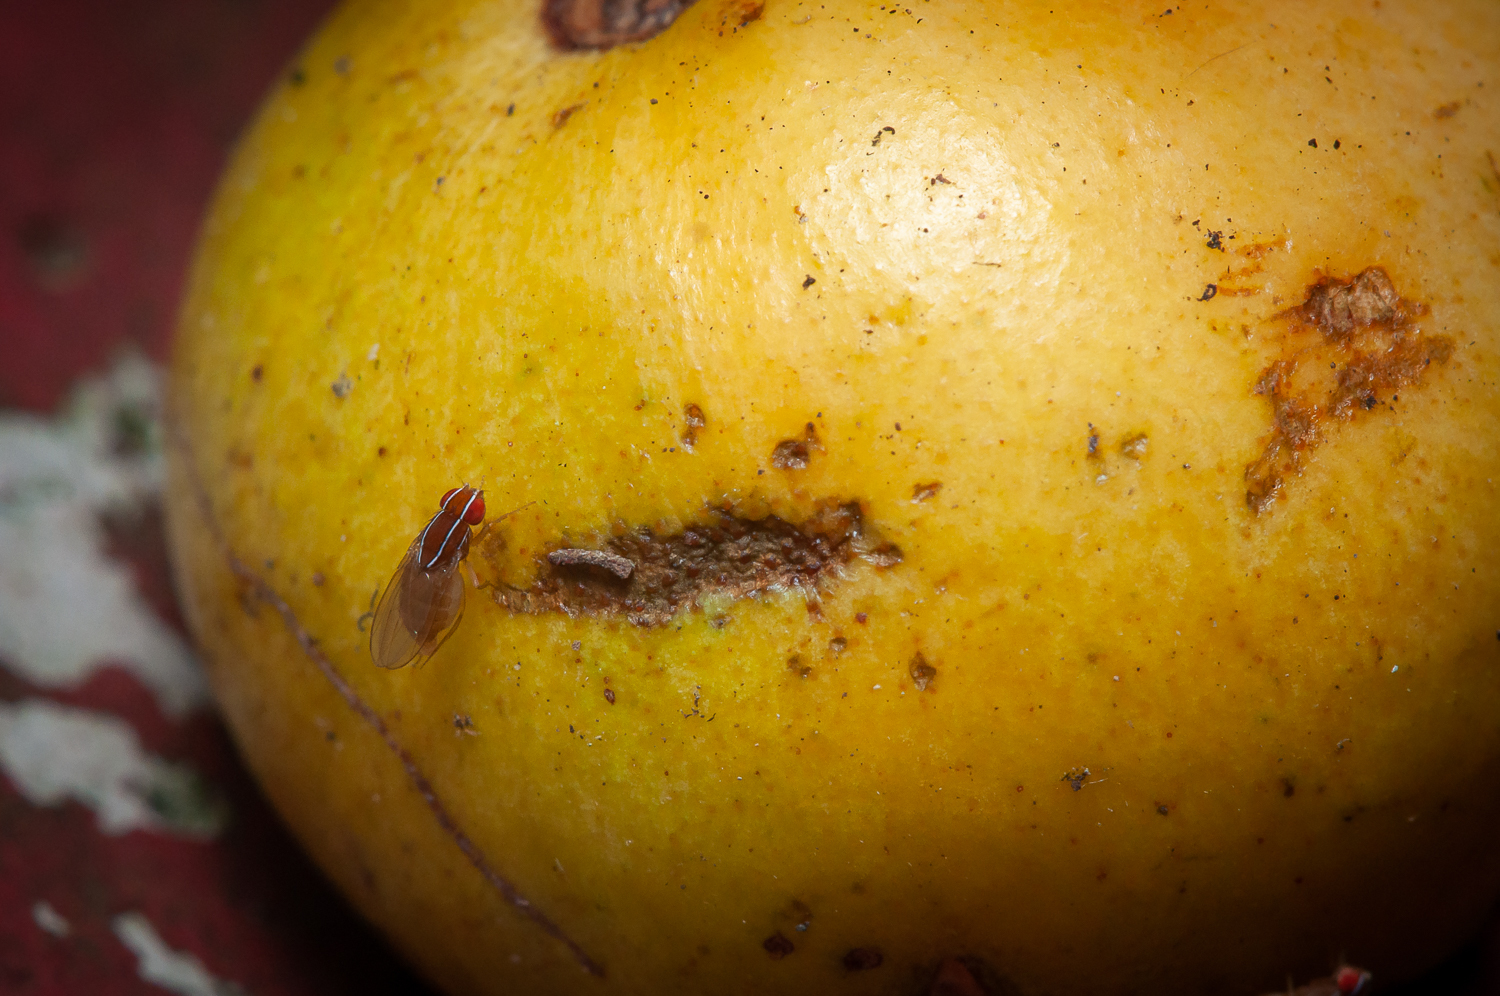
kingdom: Animalia
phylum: Arthropoda
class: Insecta
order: Diptera
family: Drosophilidae
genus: Zaprionus
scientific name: Zaprionus indianus
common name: African fig fly
